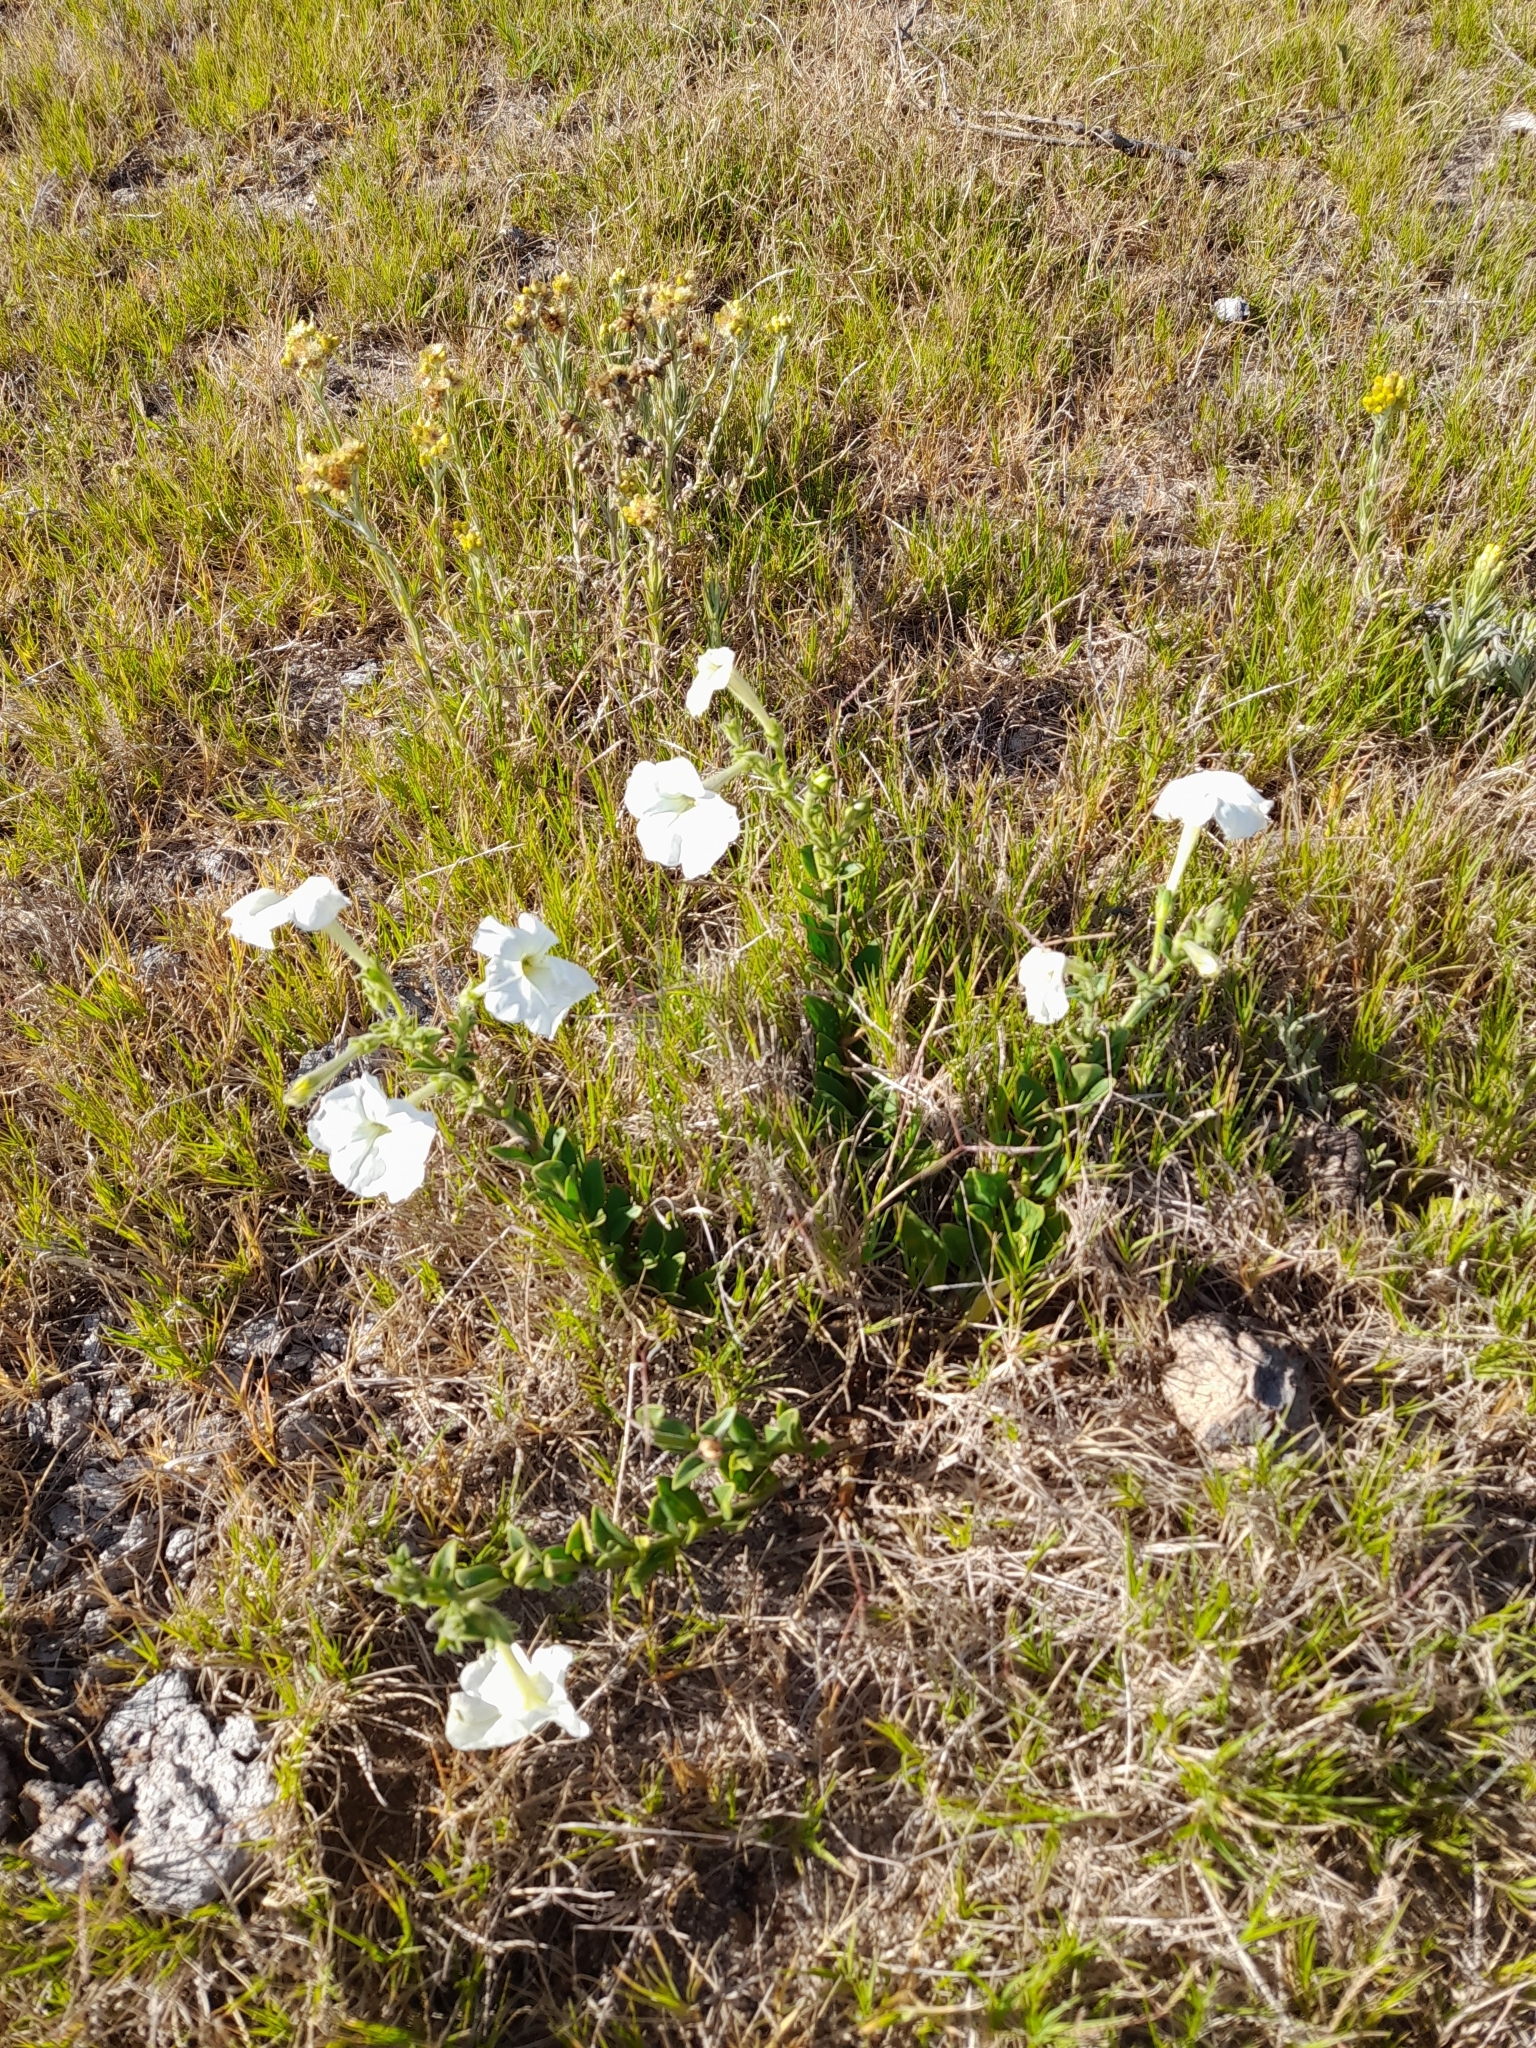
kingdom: Plantae
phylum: Tracheophyta
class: Magnoliopsida
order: Solanales
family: Solanaceae
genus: Petunia
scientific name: Petunia axillaris
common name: Large white petunia
